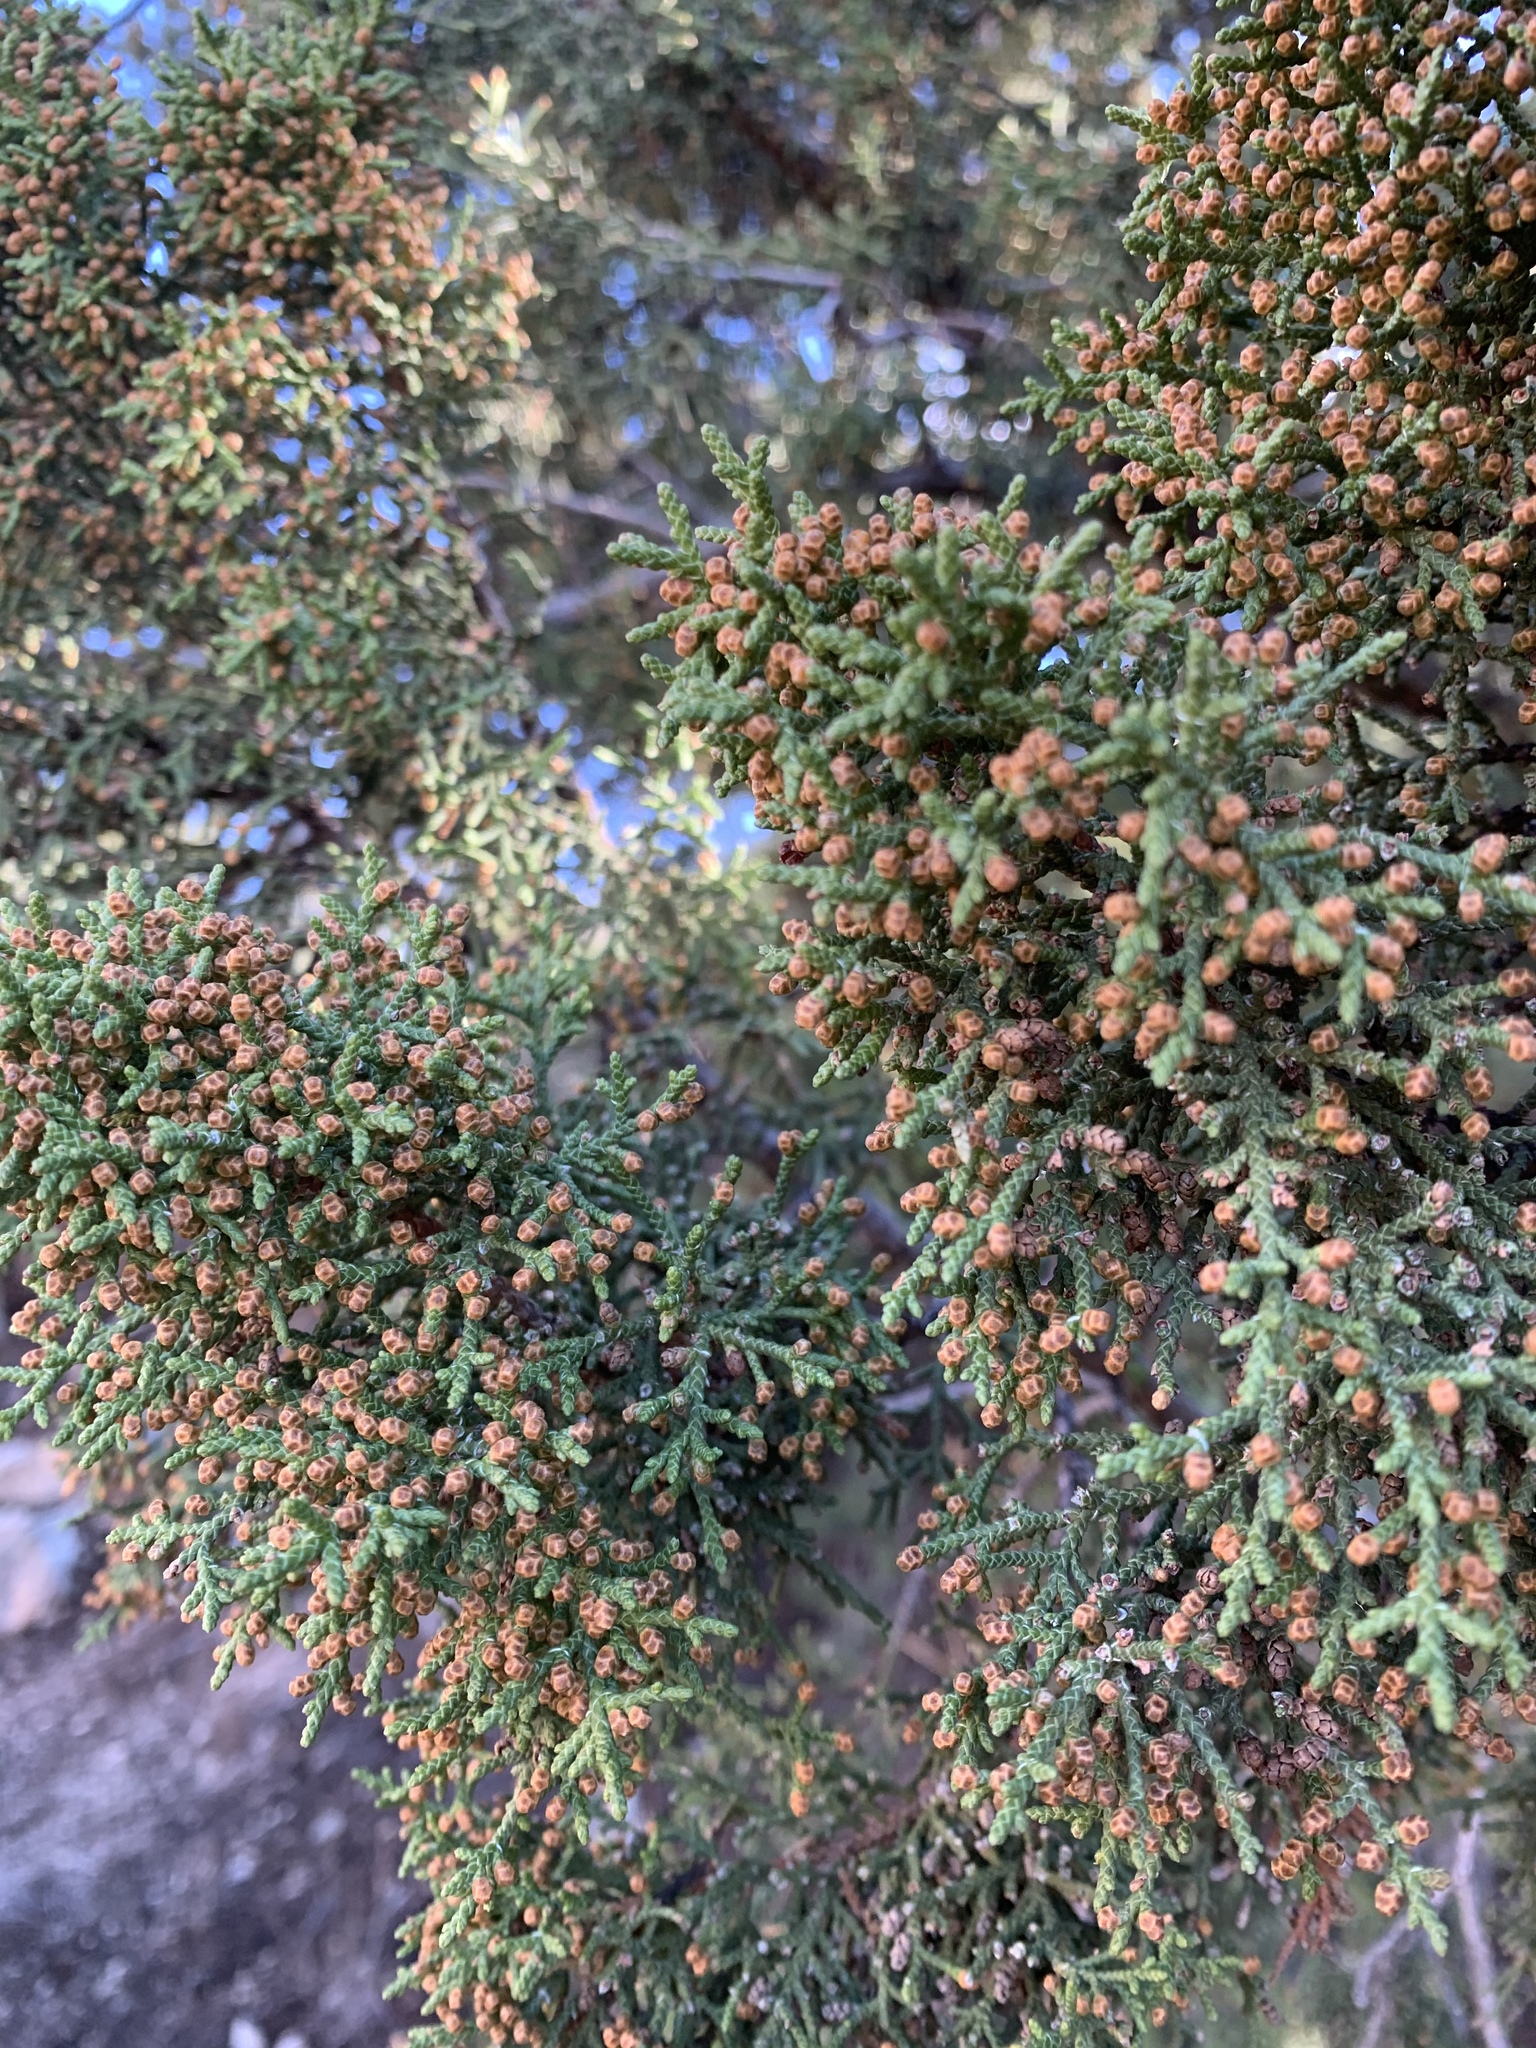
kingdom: Plantae
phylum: Tracheophyta
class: Pinopsida
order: Pinales
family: Cupressaceae
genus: Juniperus
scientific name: Juniperus monosperma
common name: One-seed juniper
